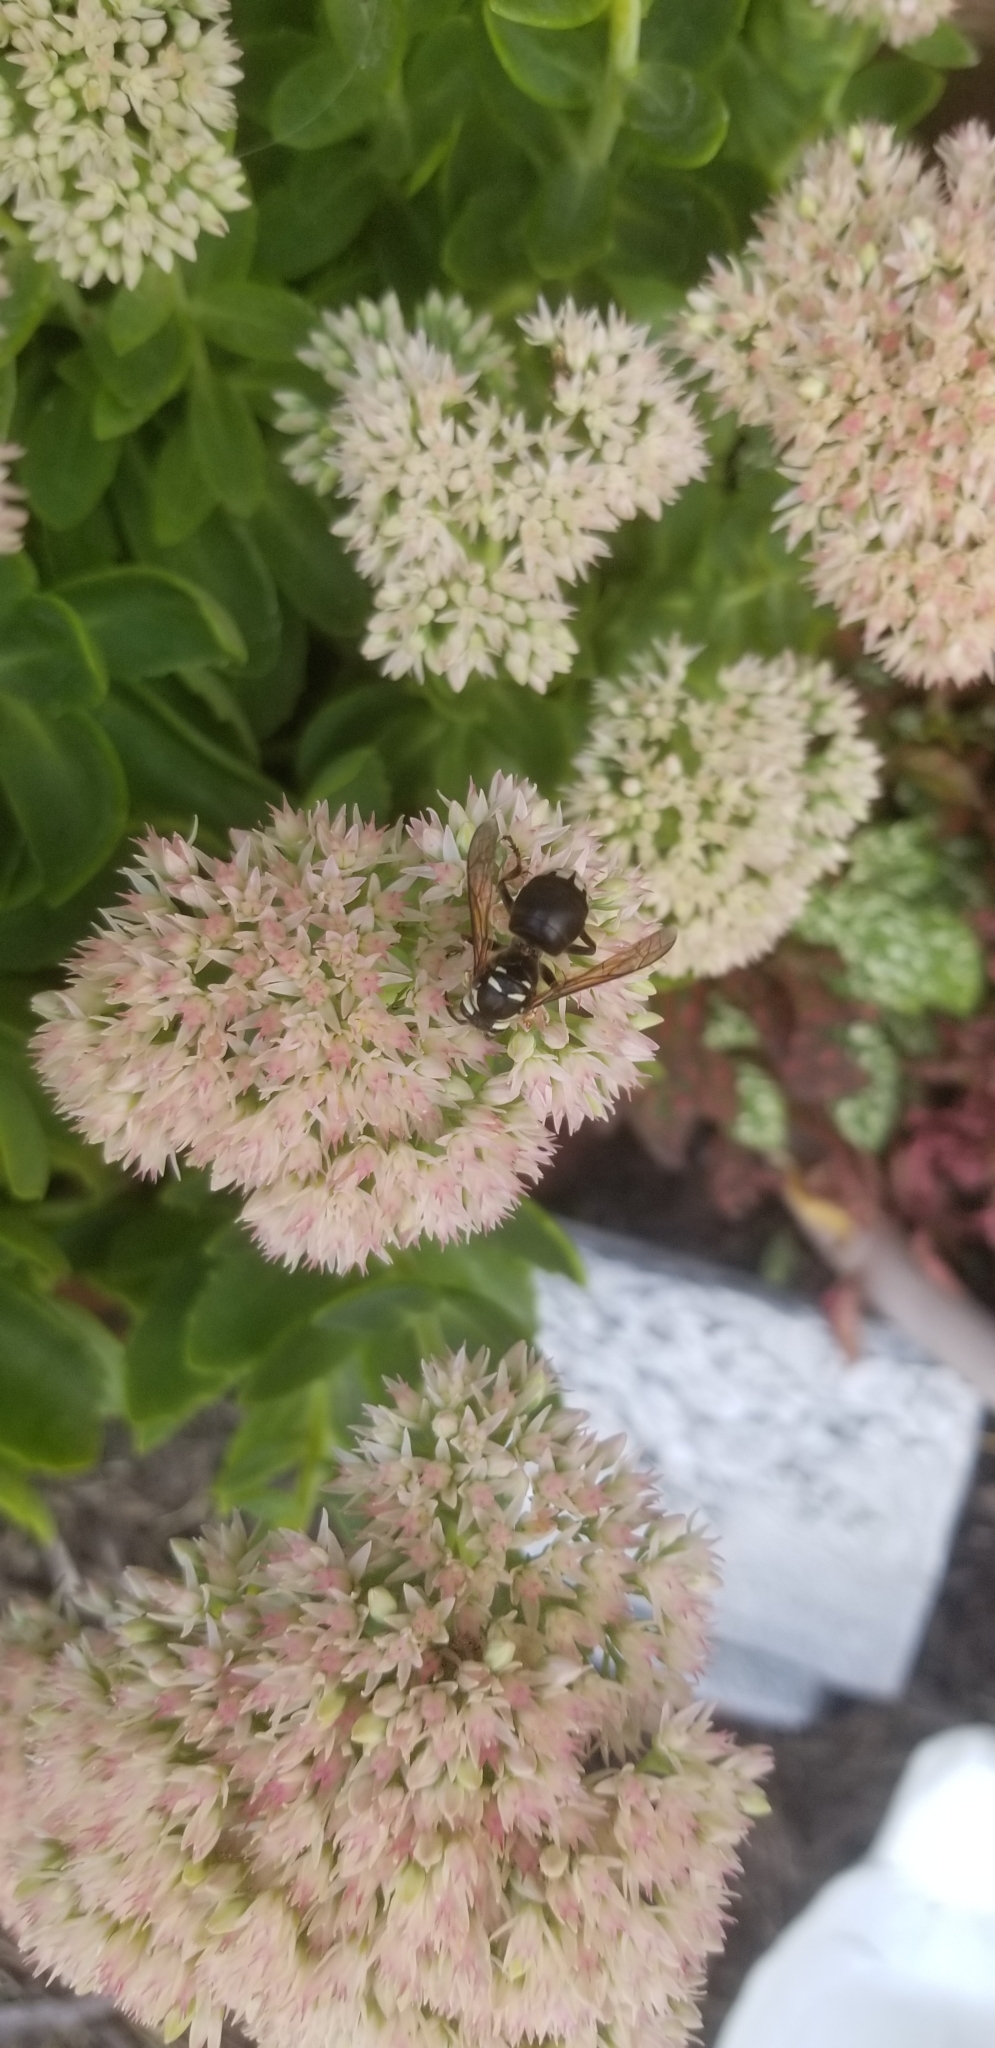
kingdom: Animalia
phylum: Arthropoda
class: Insecta
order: Hymenoptera
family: Vespidae
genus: Dolichovespula
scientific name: Dolichovespula maculata
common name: Bald-faced hornet
